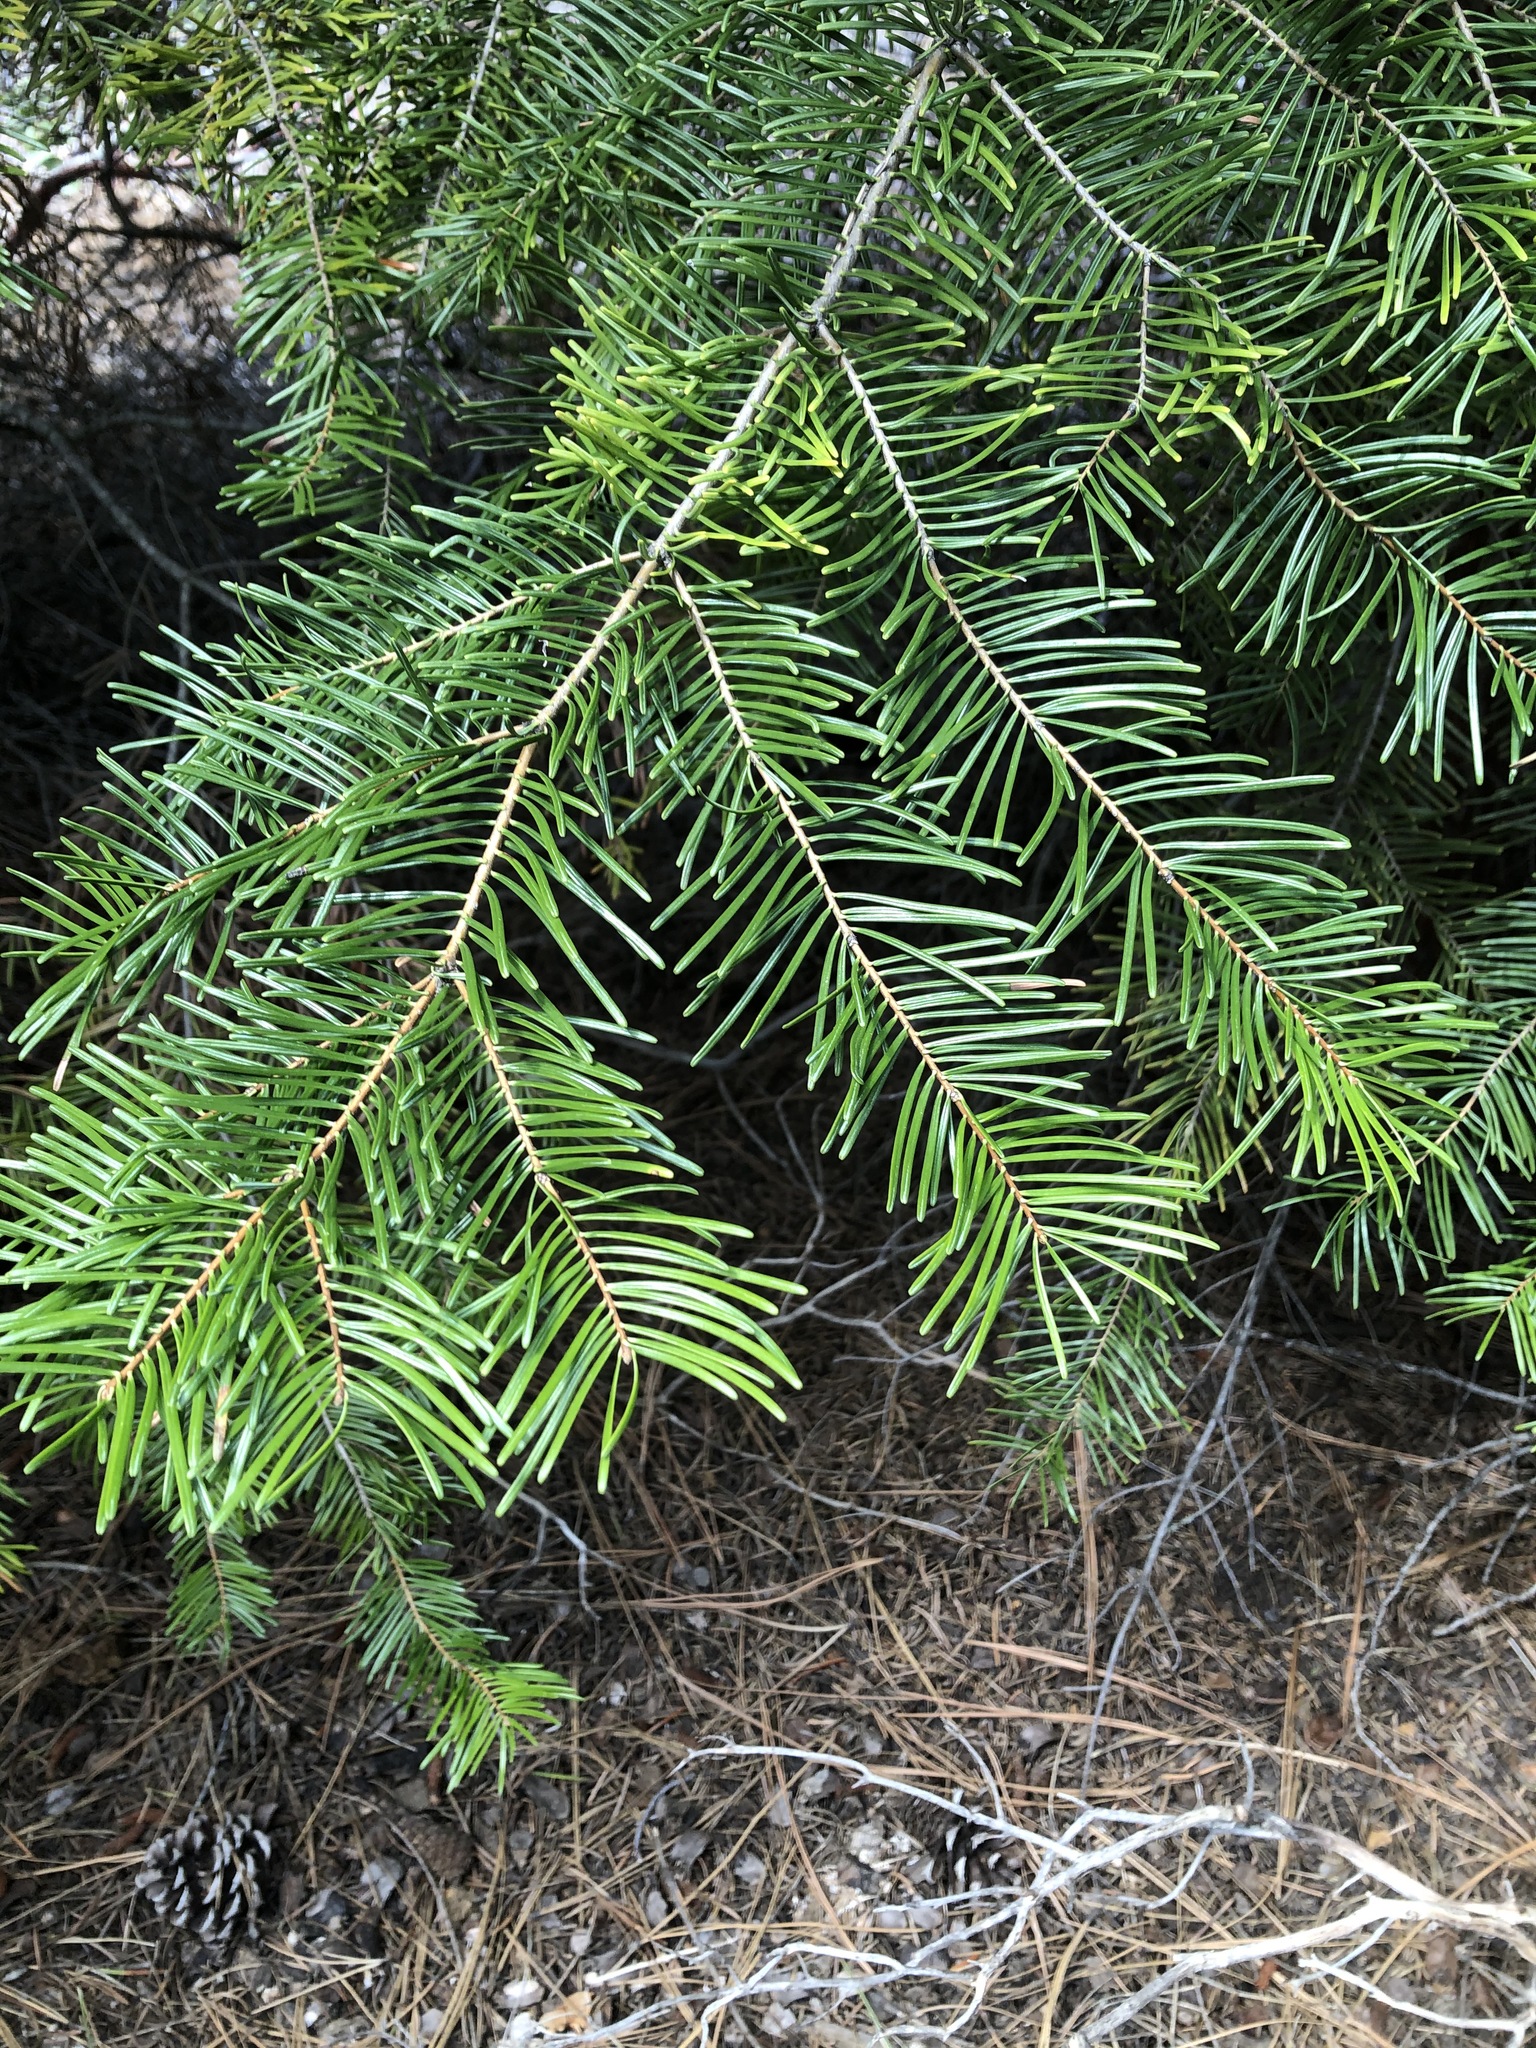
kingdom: Plantae
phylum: Tracheophyta
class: Pinopsida
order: Pinales
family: Pinaceae
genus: Abies
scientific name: Abies grandis
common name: Giant fir
